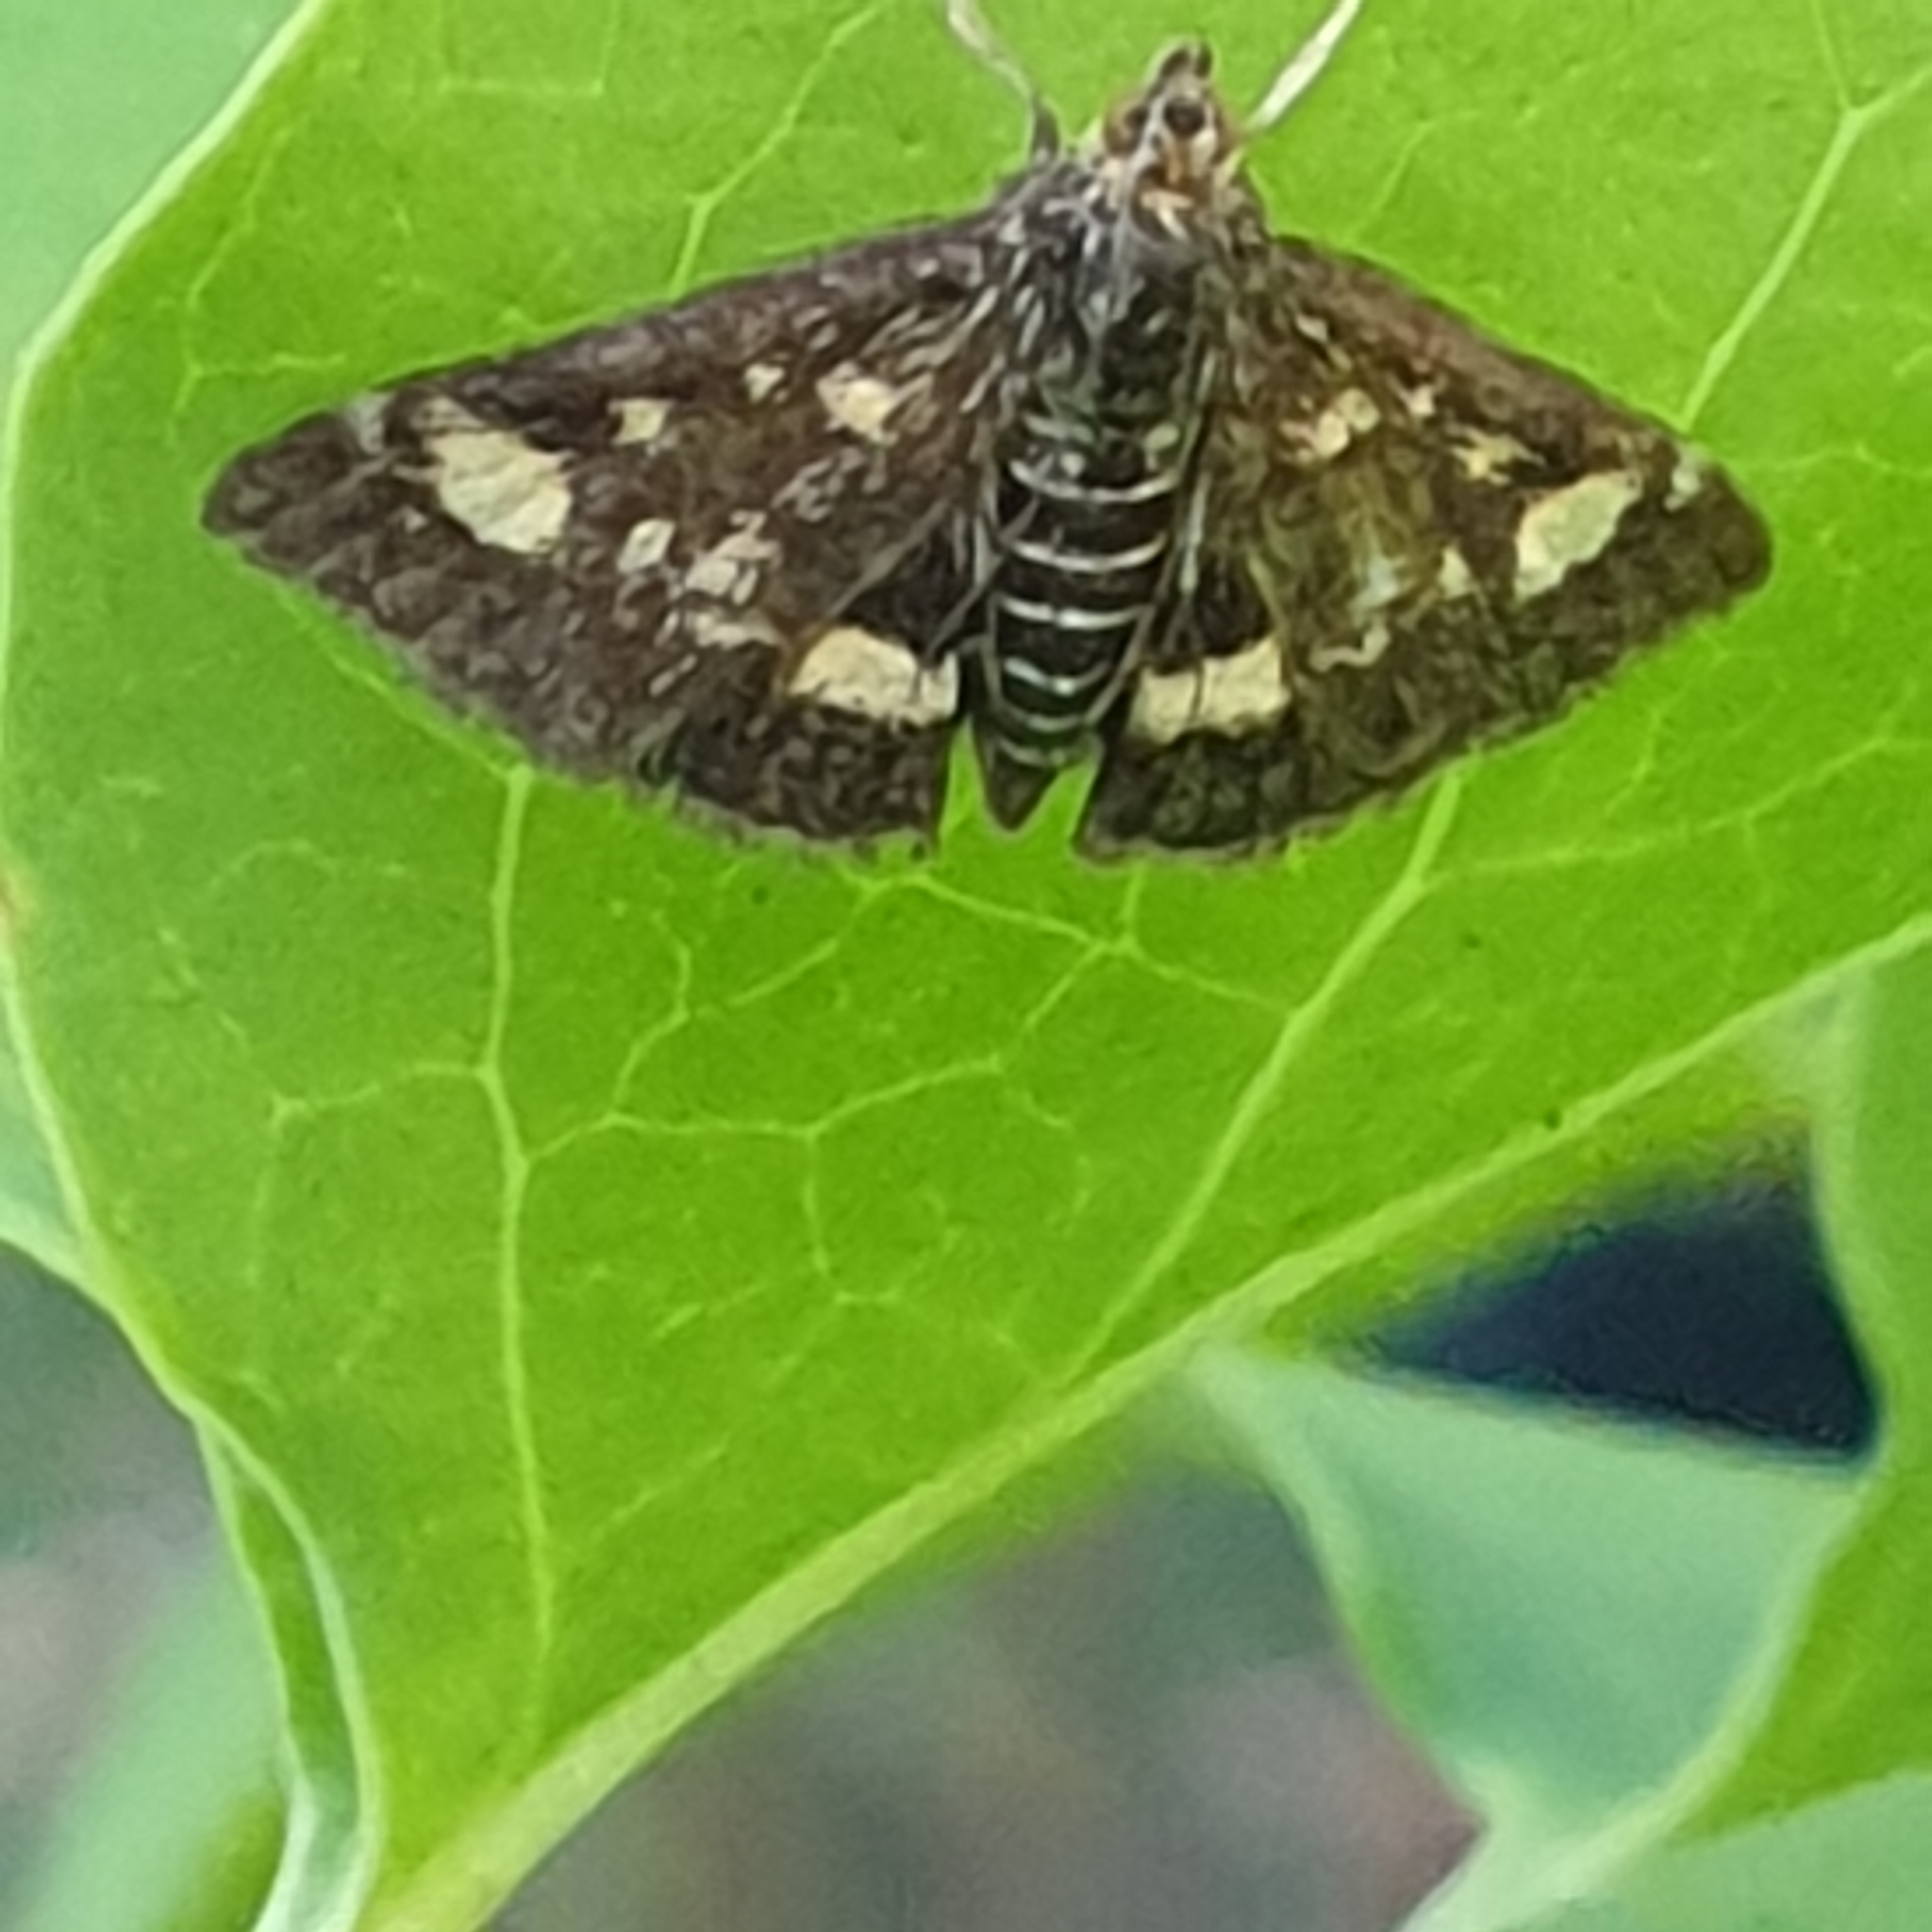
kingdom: Animalia
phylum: Arthropoda
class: Insecta
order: Lepidoptera
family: Crambidae
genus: Pyrausta
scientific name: Pyrausta aurata
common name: Small purple & gold
